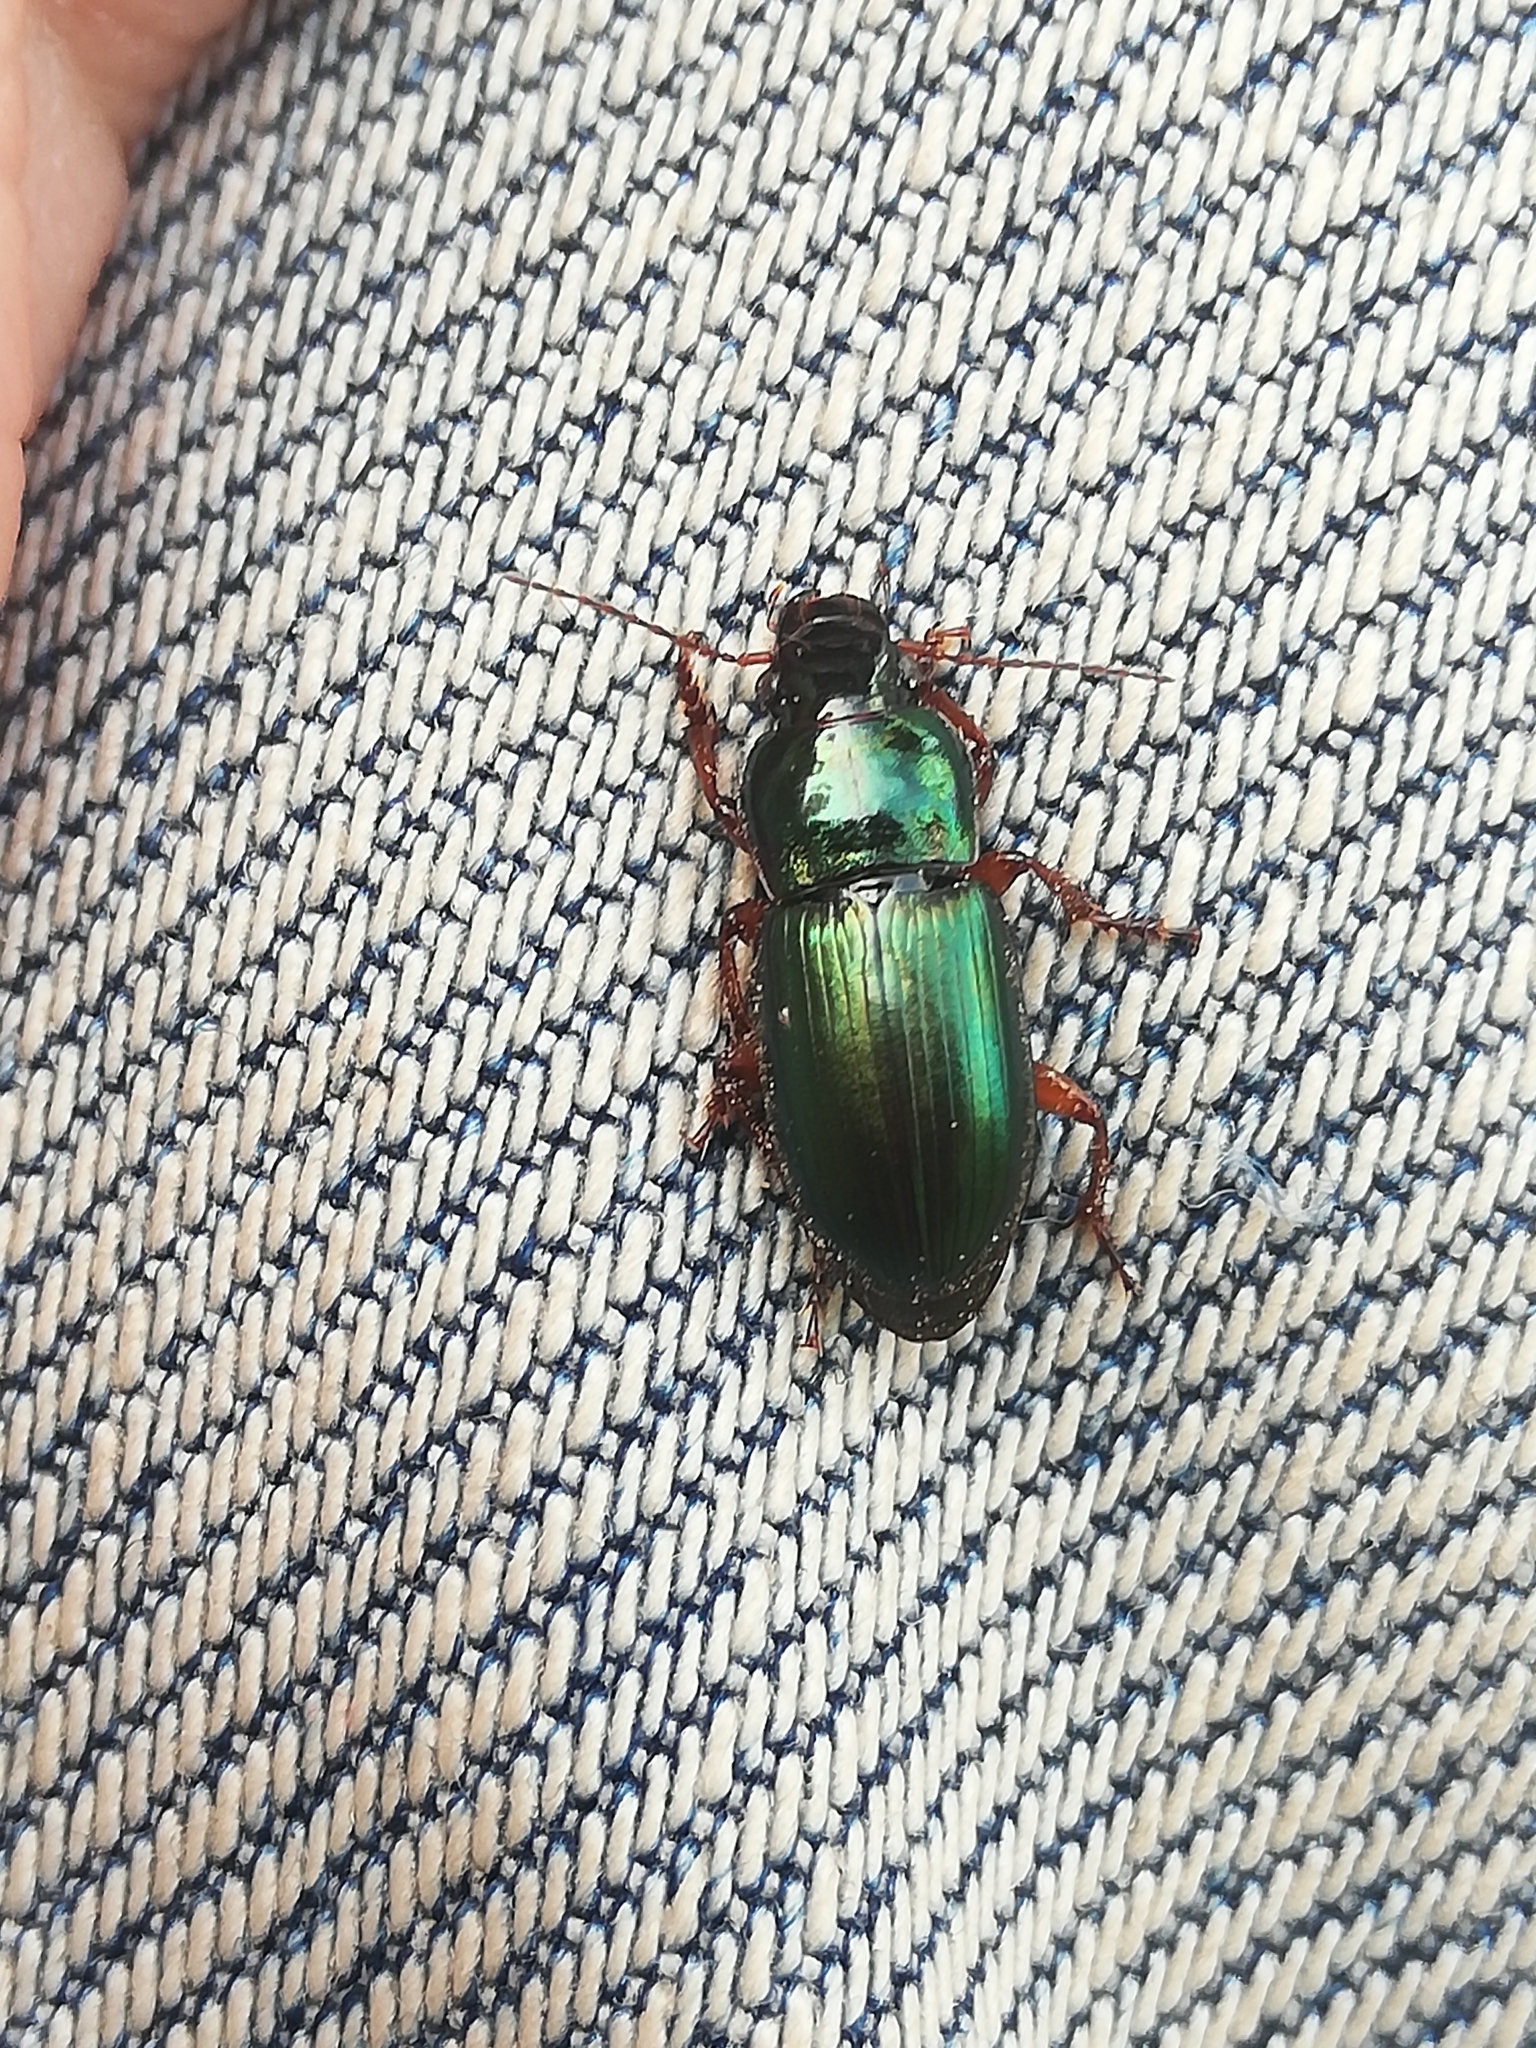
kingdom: Animalia
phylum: Arthropoda
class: Insecta
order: Coleoptera
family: Carabidae
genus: Harpalus
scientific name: Harpalus affinis
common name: Polychrome harp ground beetle
